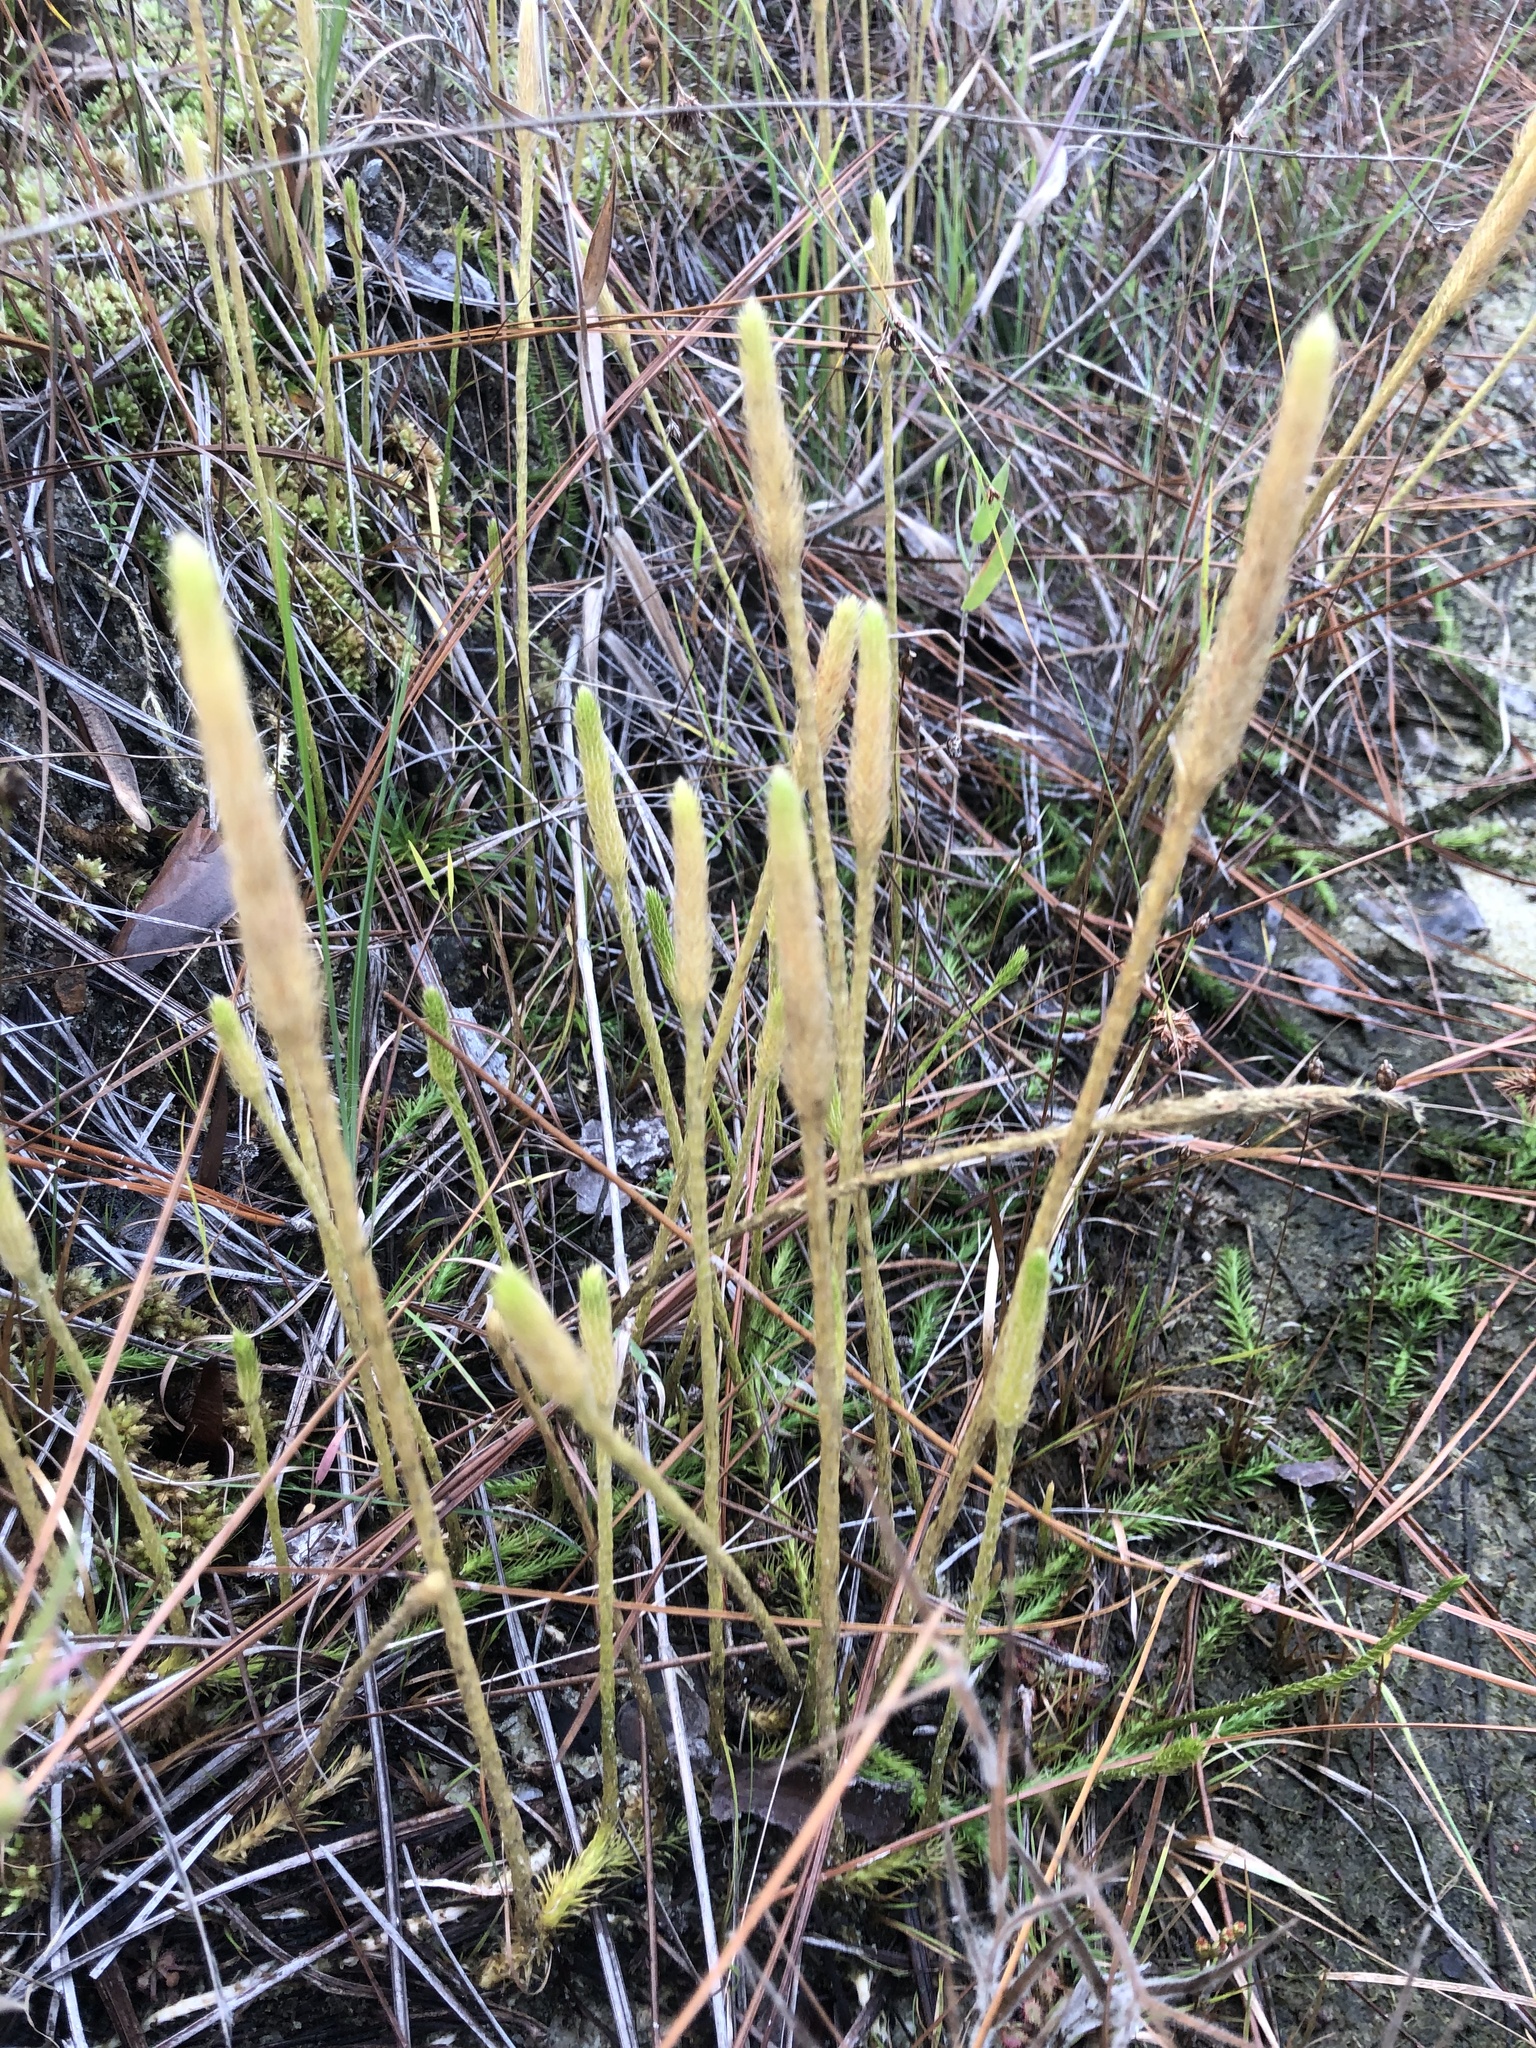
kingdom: Plantae
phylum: Tracheophyta
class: Lycopodiopsida
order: Lycopodiales
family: Lycopodiaceae
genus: Lycopodiella
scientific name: Lycopodiella appressa
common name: Appressed bog clubmoss
